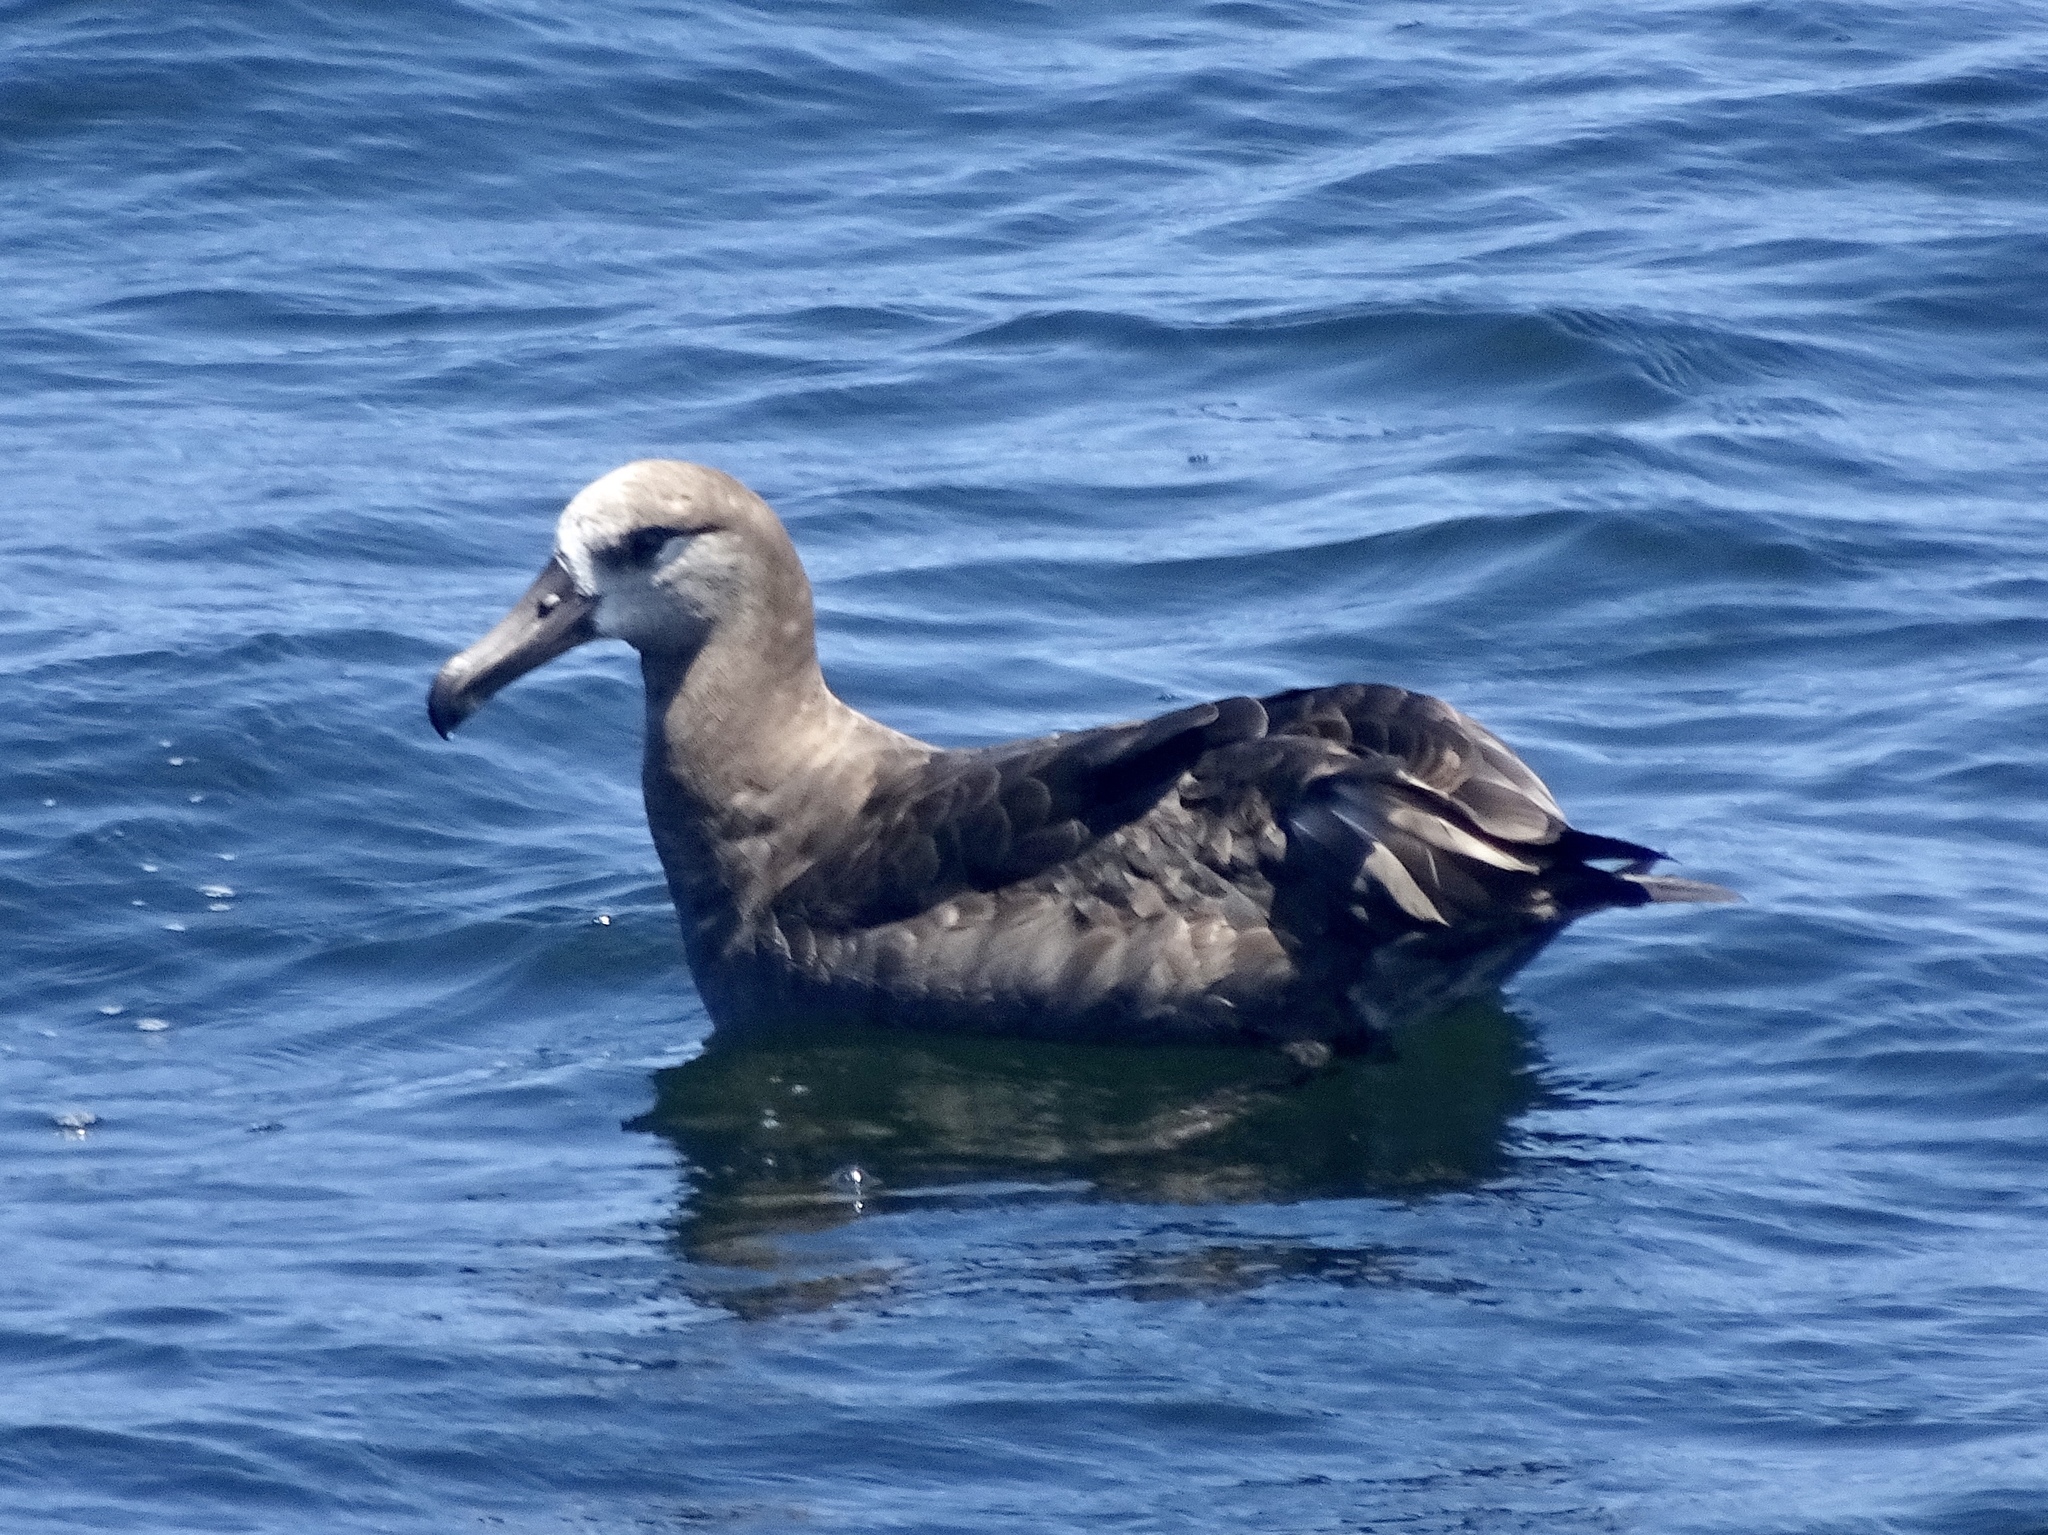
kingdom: Animalia
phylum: Chordata
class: Aves
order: Procellariiformes
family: Diomedeidae
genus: Phoebastria
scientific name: Phoebastria nigripes
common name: Black-footed albatross
